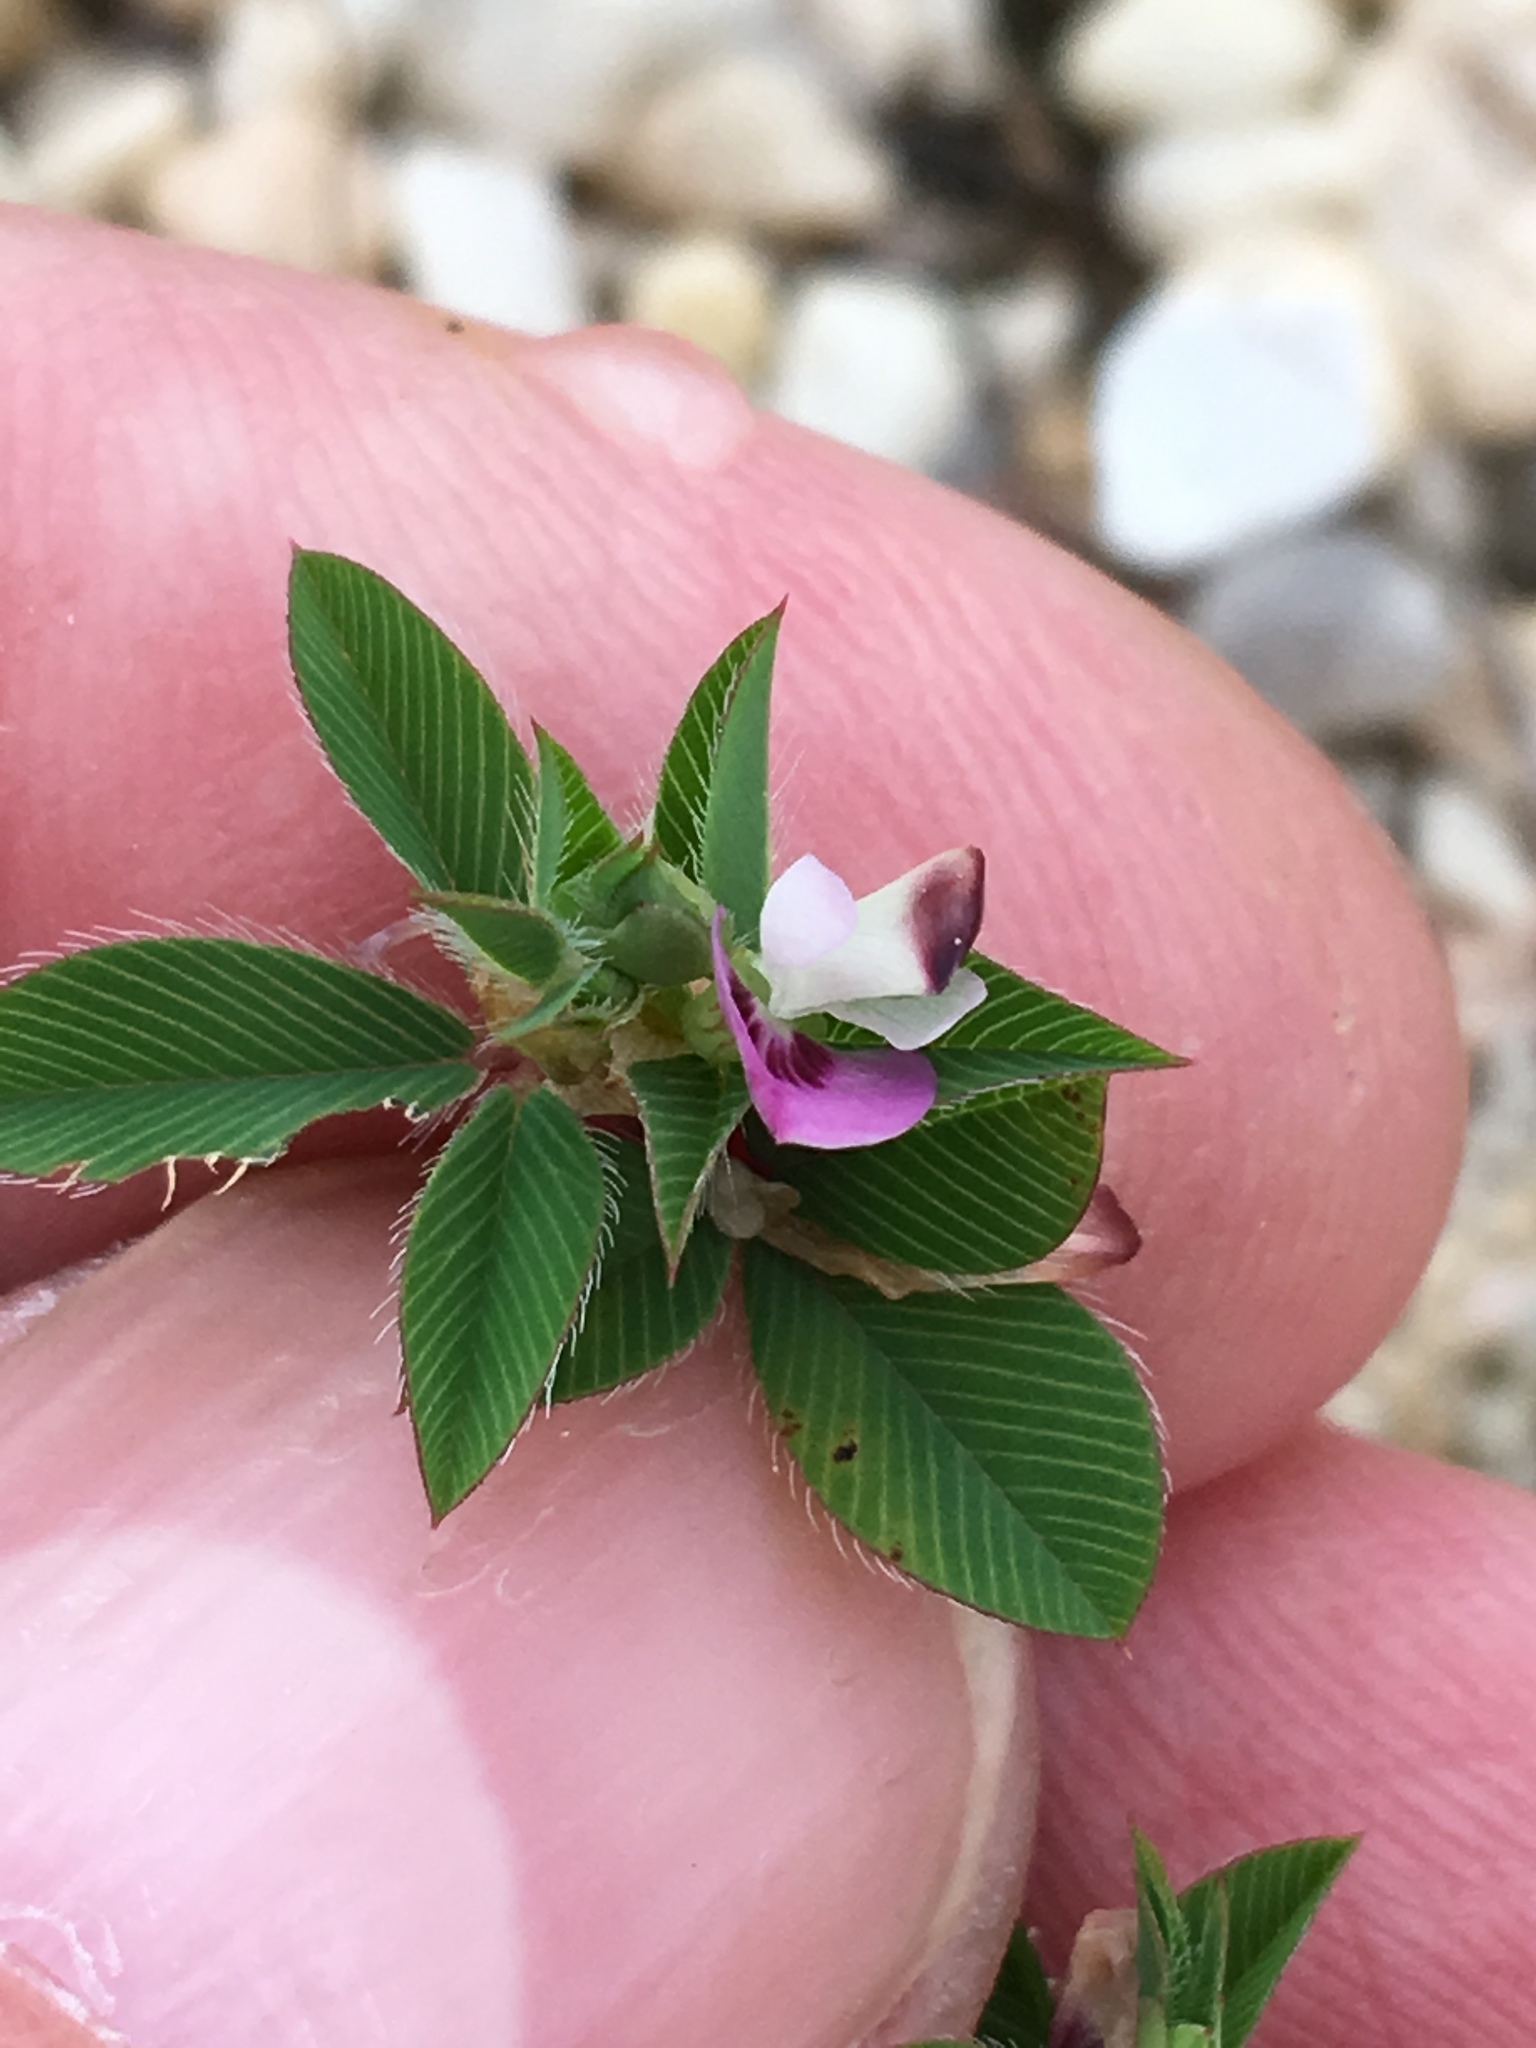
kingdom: Plantae
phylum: Tracheophyta
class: Magnoliopsida
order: Fabales
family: Fabaceae
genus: Kummerowia
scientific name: Kummerowia stipulacea
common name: Korean clover
